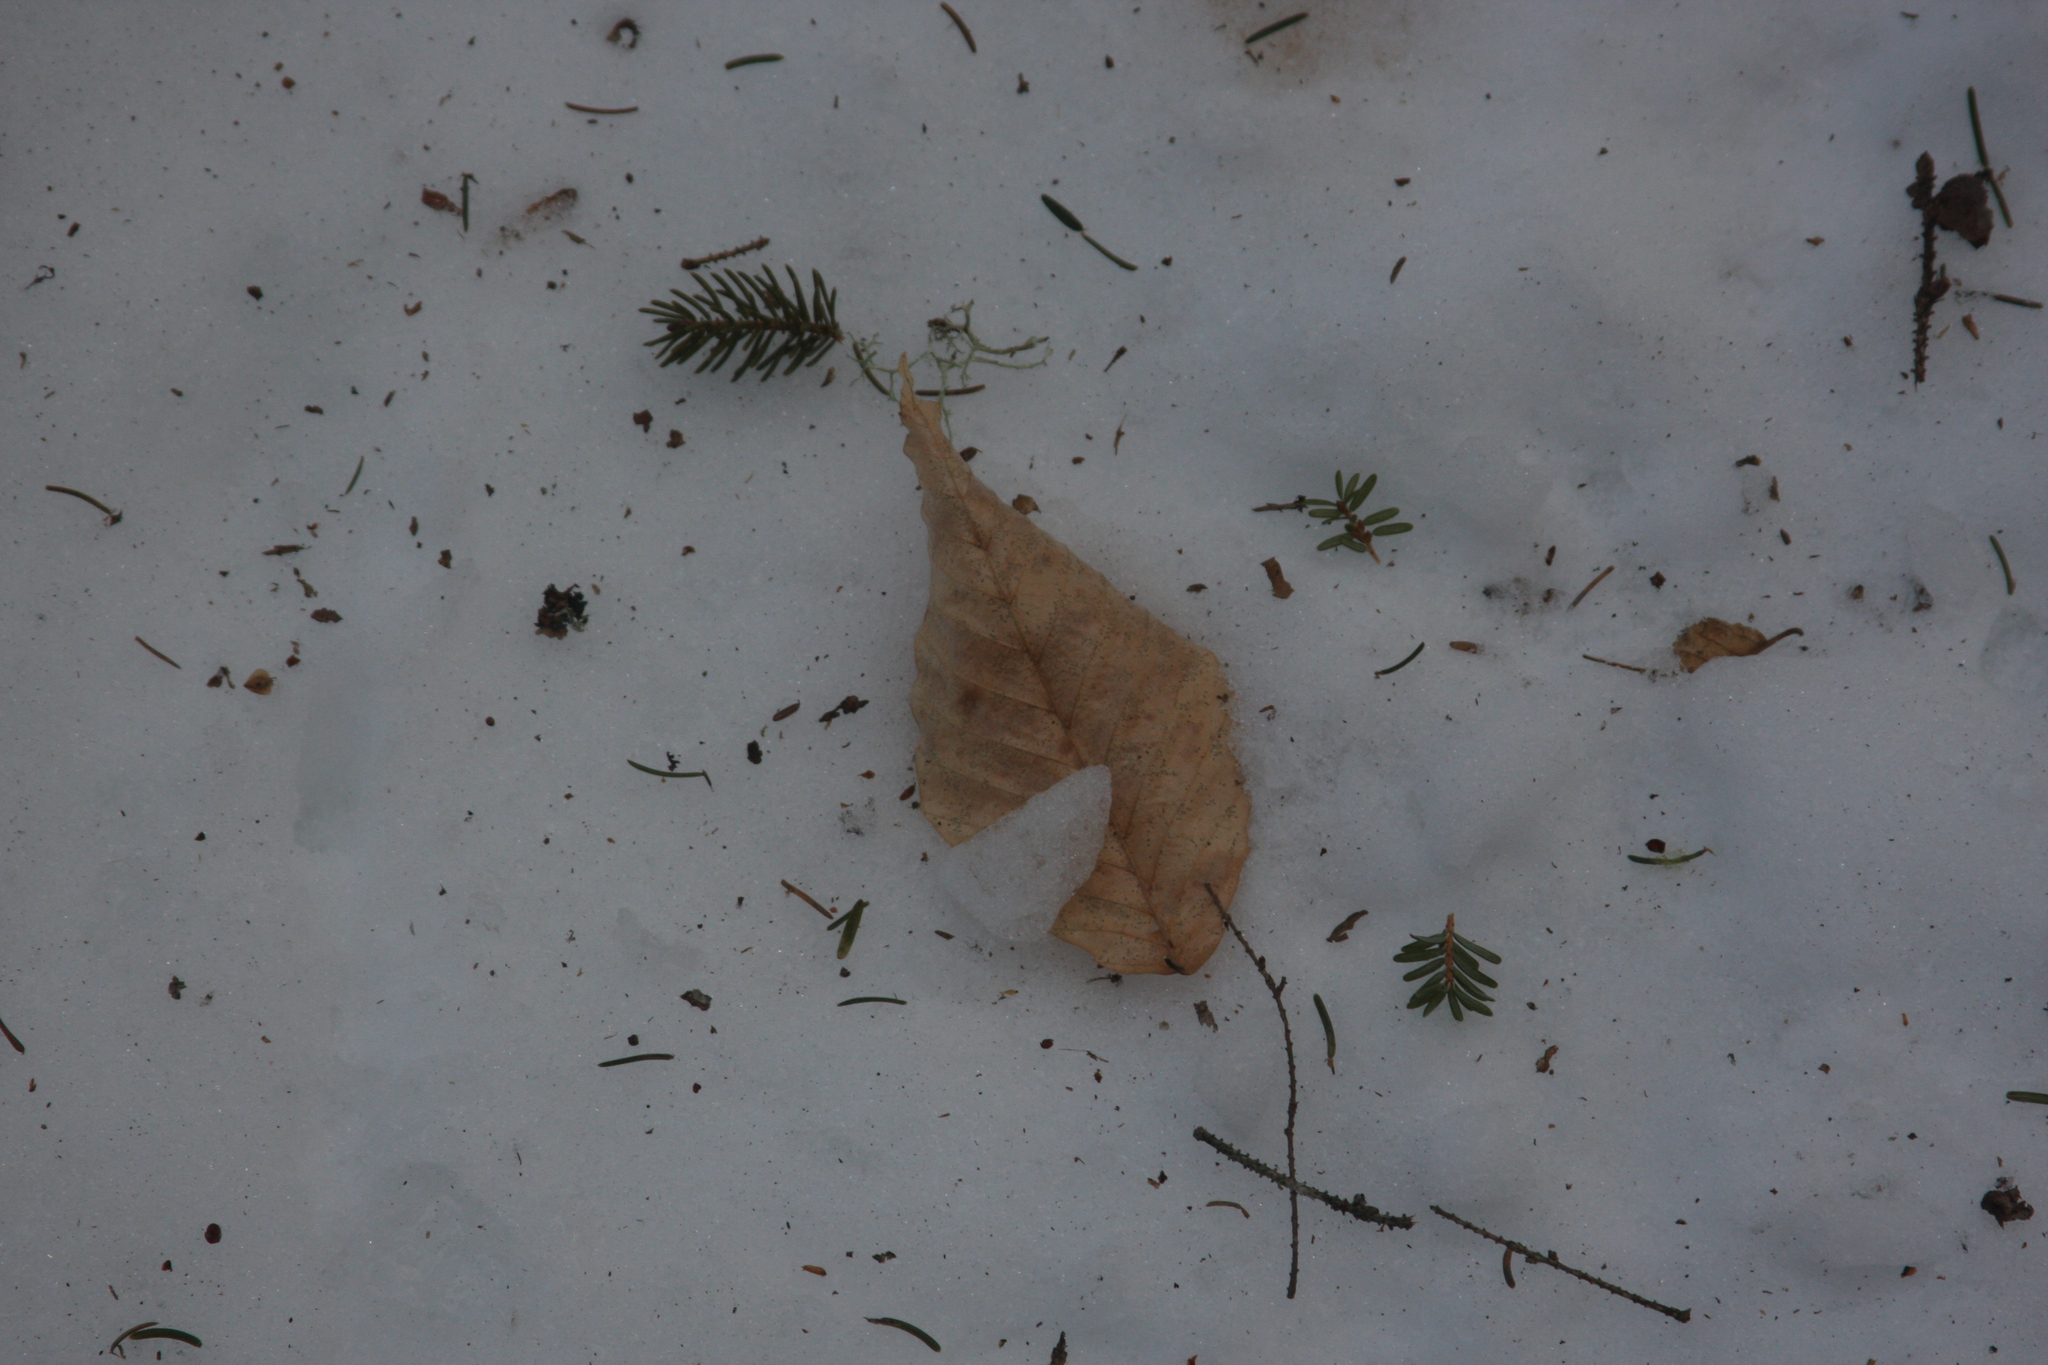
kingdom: Plantae
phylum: Tracheophyta
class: Magnoliopsida
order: Fagales
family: Fagaceae
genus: Fagus
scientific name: Fagus grandifolia
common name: American beech
